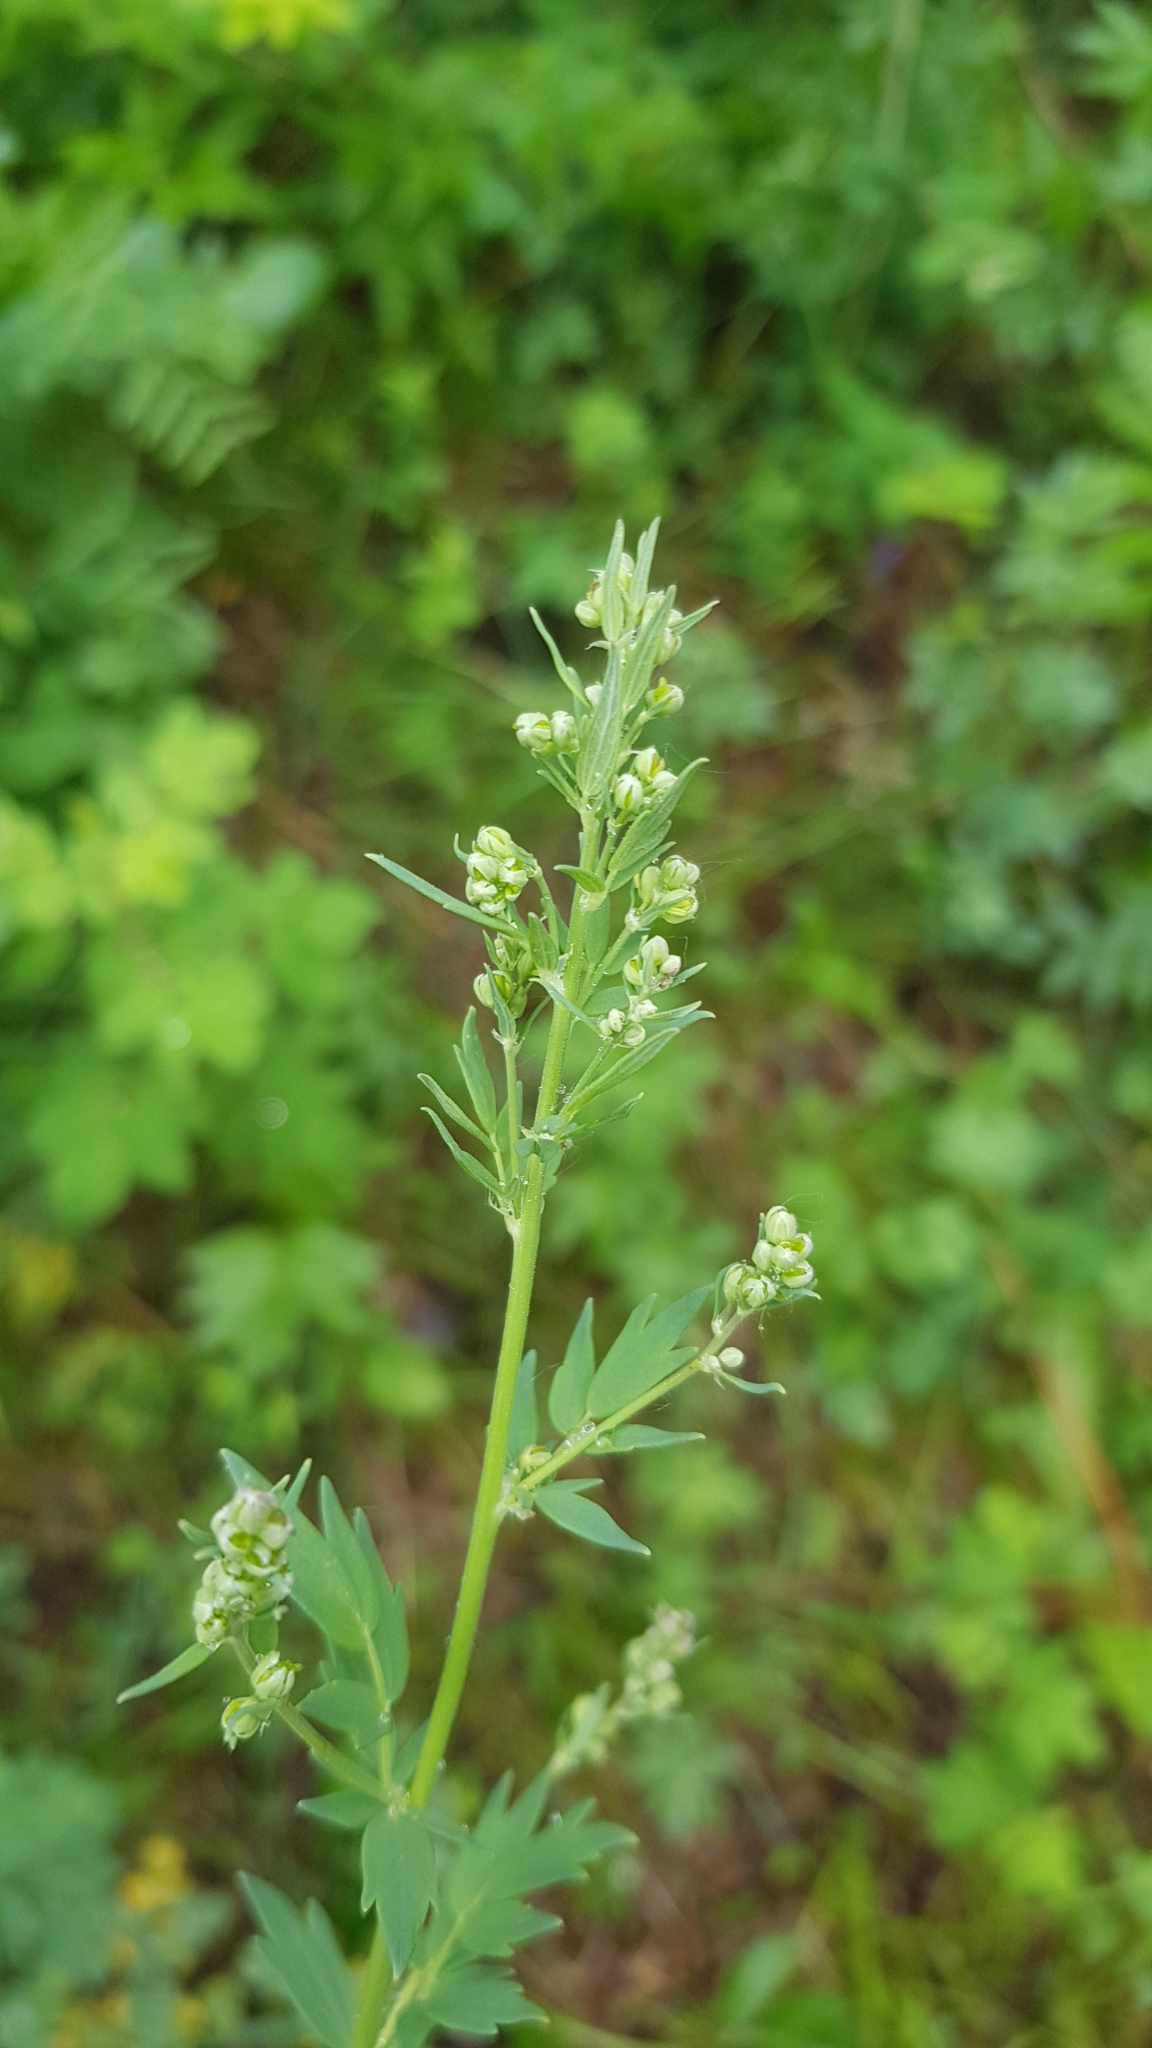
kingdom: Plantae
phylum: Tracheophyta
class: Magnoliopsida
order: Ranunculales
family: Ranunculaceae
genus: Thalictrum
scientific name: Thalictrum simplex
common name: Small meadow-rue
